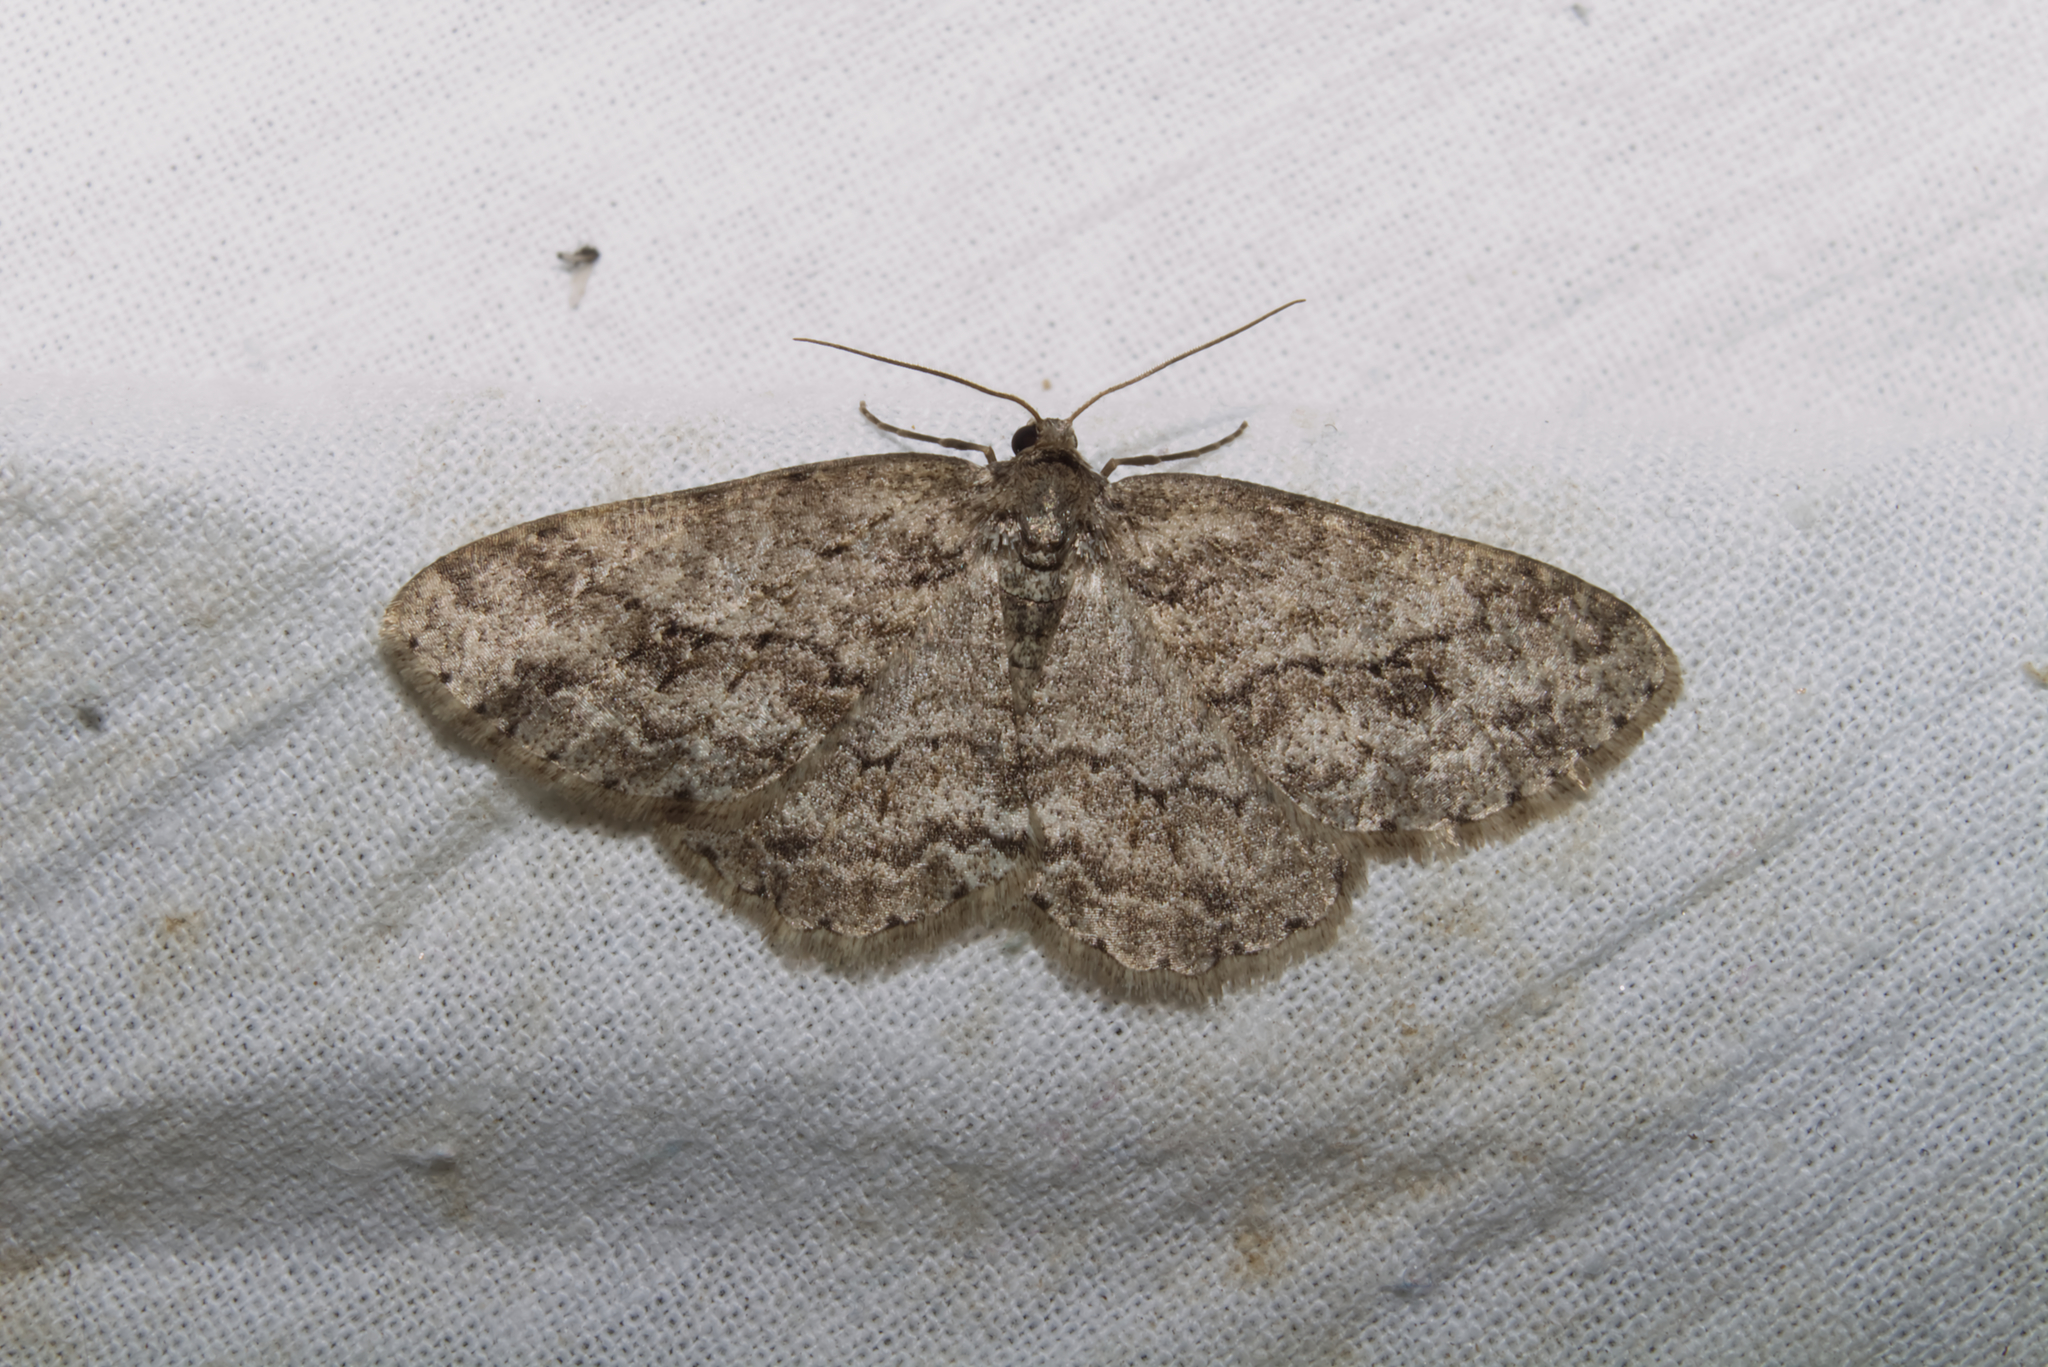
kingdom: Animalia
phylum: Arthropoda
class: Insecta
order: Lepidoptera
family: Geometridae
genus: Ectropis
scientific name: Ectropis crepuscularia
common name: Engrailed
